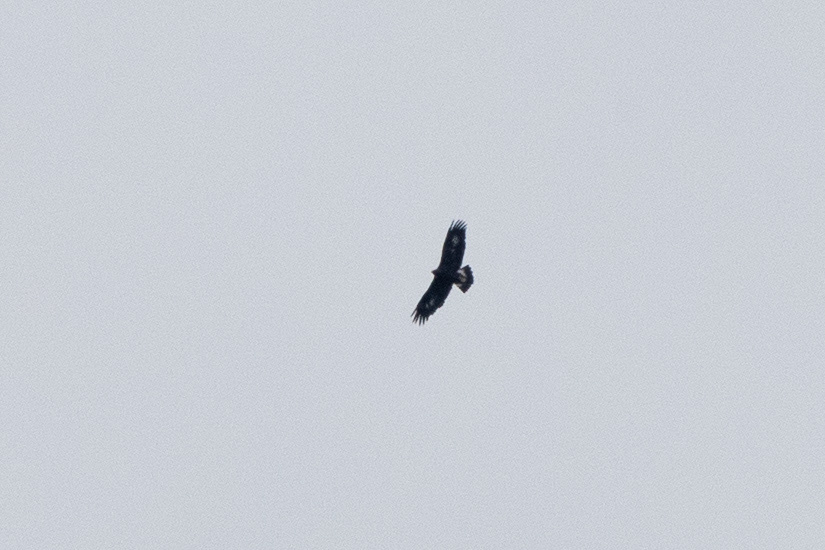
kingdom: Animalia
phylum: Chordata
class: Aves
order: Accipitriformes
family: Accipitridae
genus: Aquila
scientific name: Aquila chrysaetos
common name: Golden eagle
